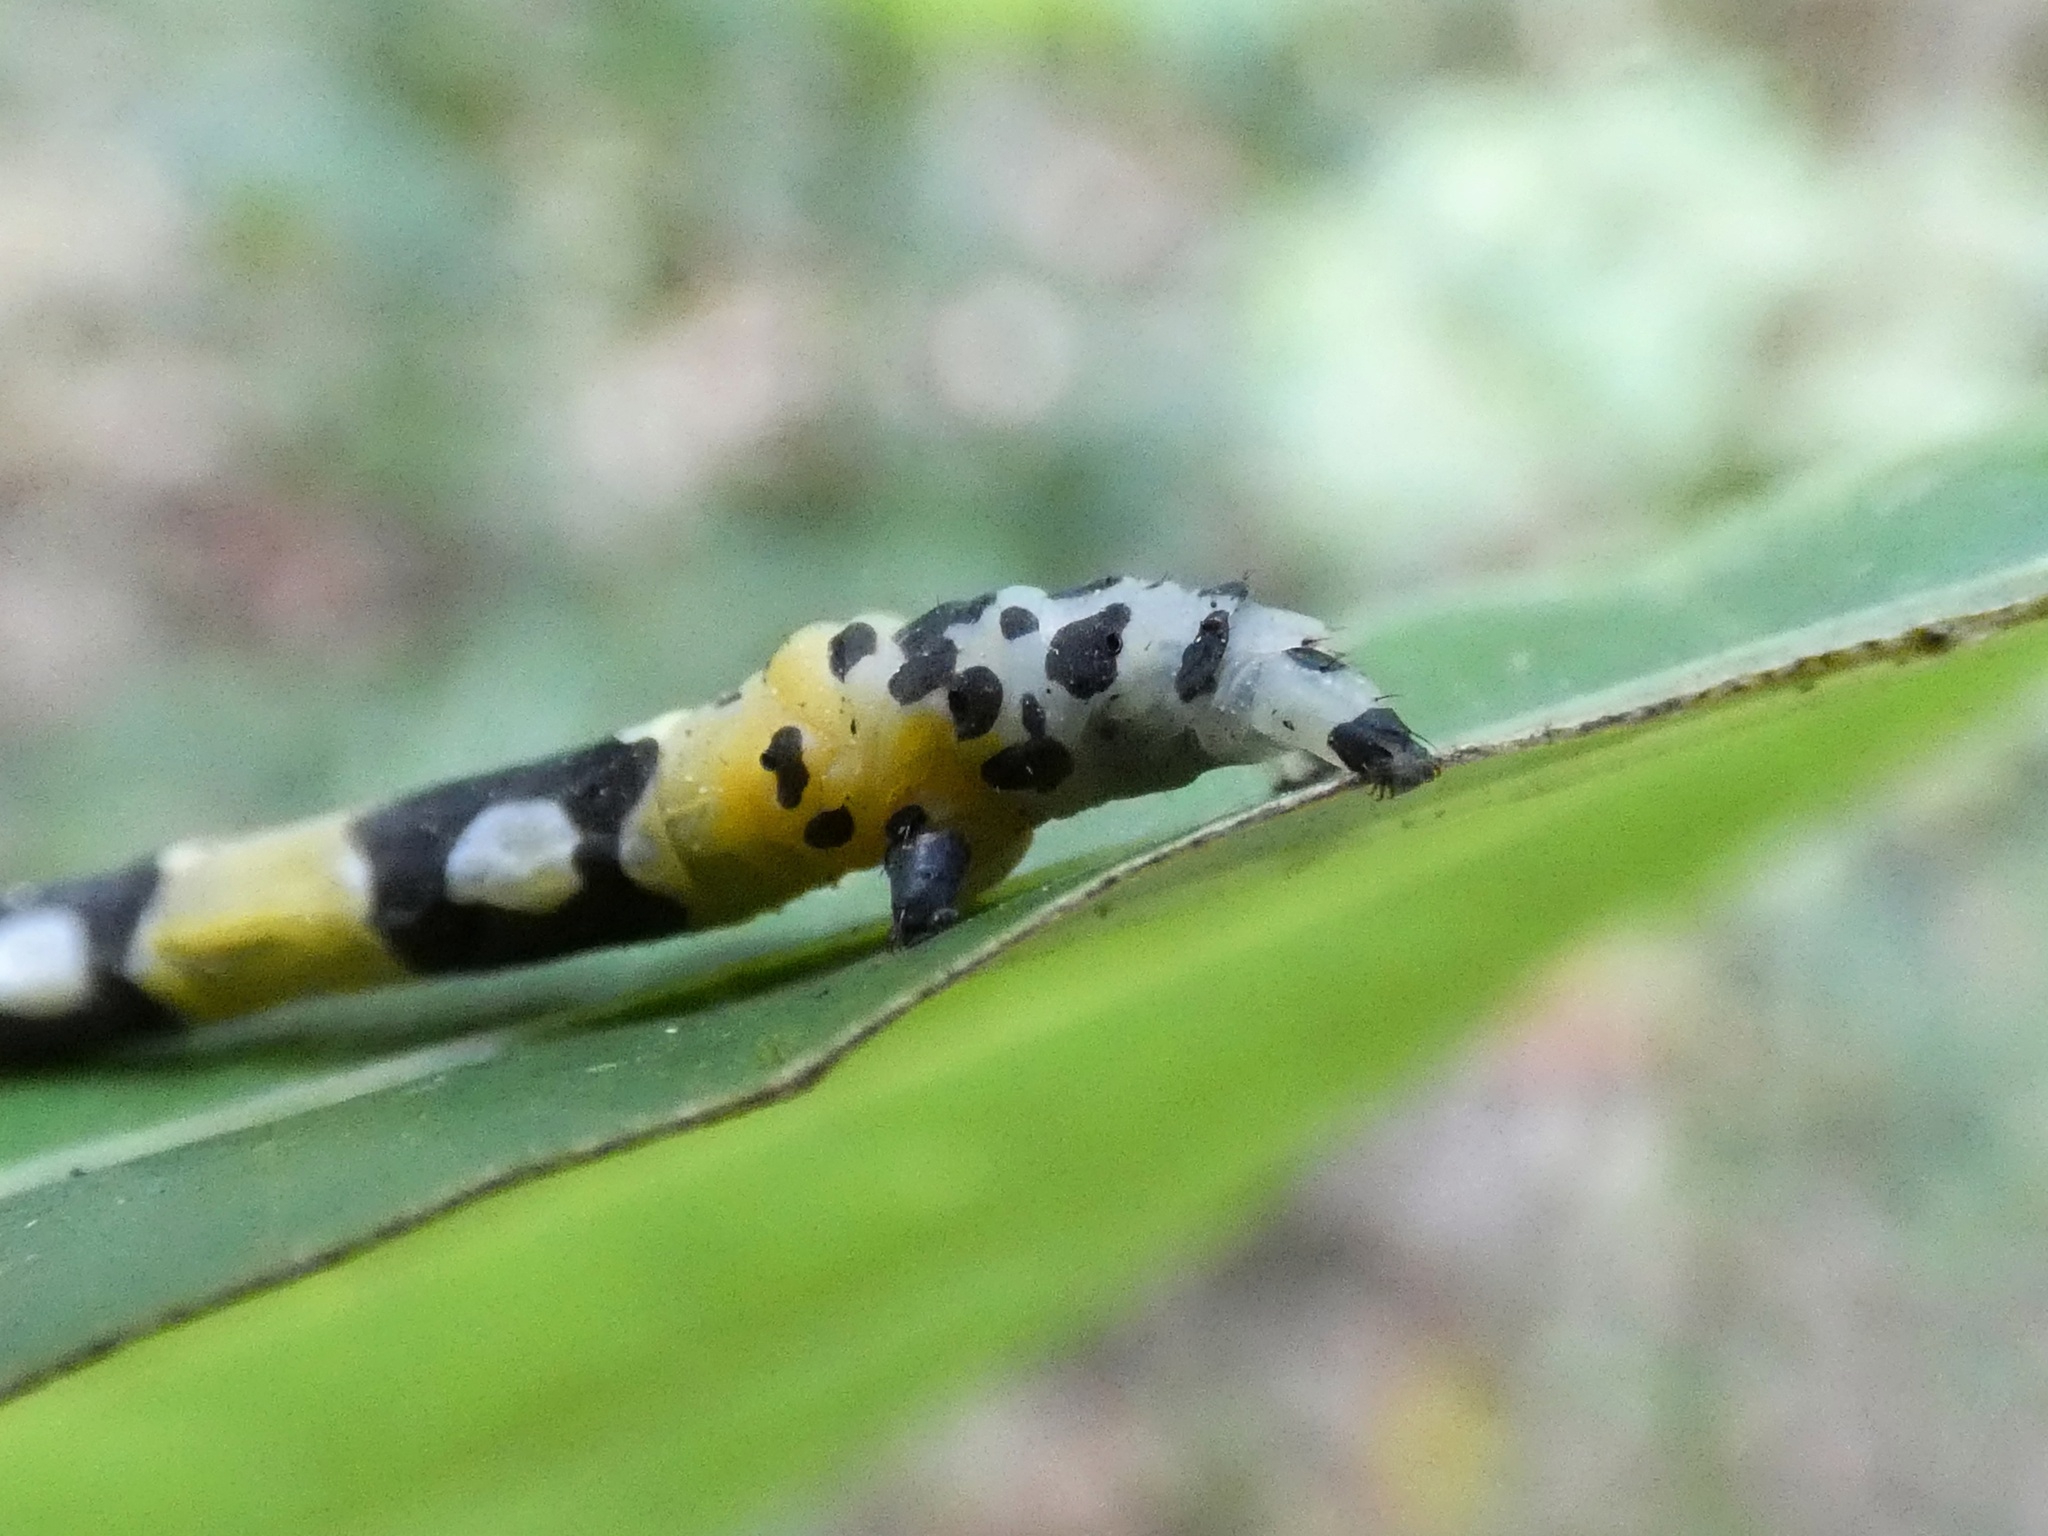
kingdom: Animalia
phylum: Arthropoda
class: Insecta
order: Lepidoptera
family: Geometridae
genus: Pseudasellodes
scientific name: Pseudasellodes fenestraria
